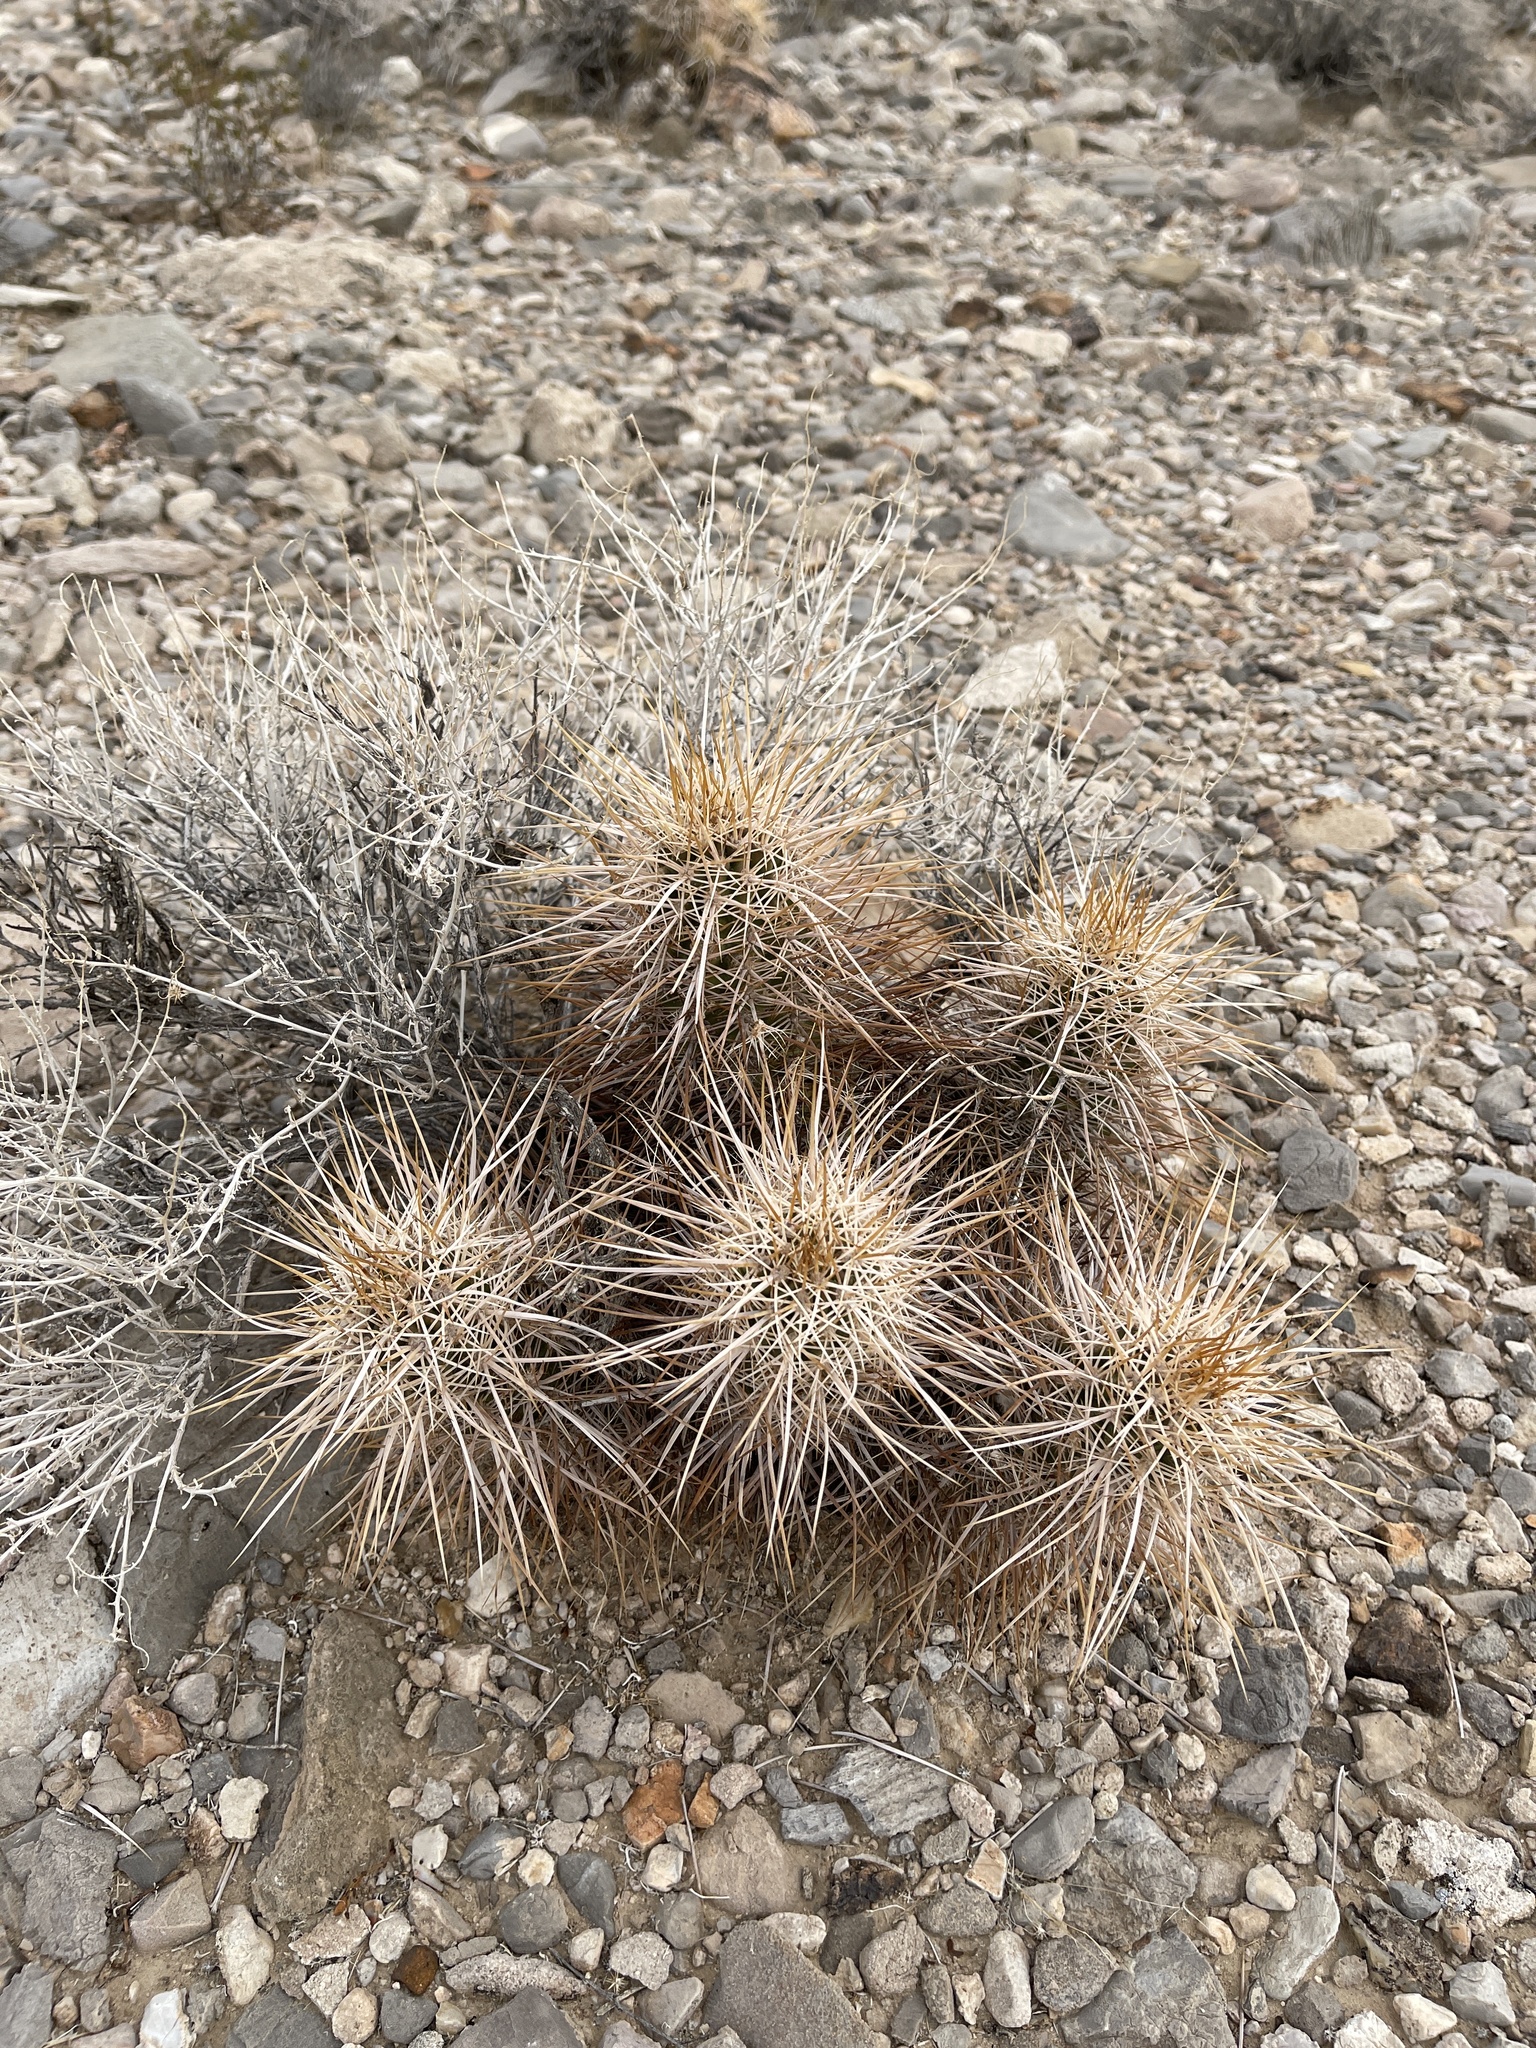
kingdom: Plantae
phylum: Tracheophyta
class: Magnoliopsida
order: Caryophyllales
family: Cactaceae
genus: Echinocereus
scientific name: Echinocereus engelmannii
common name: Engelmann's hedgehog cactus
